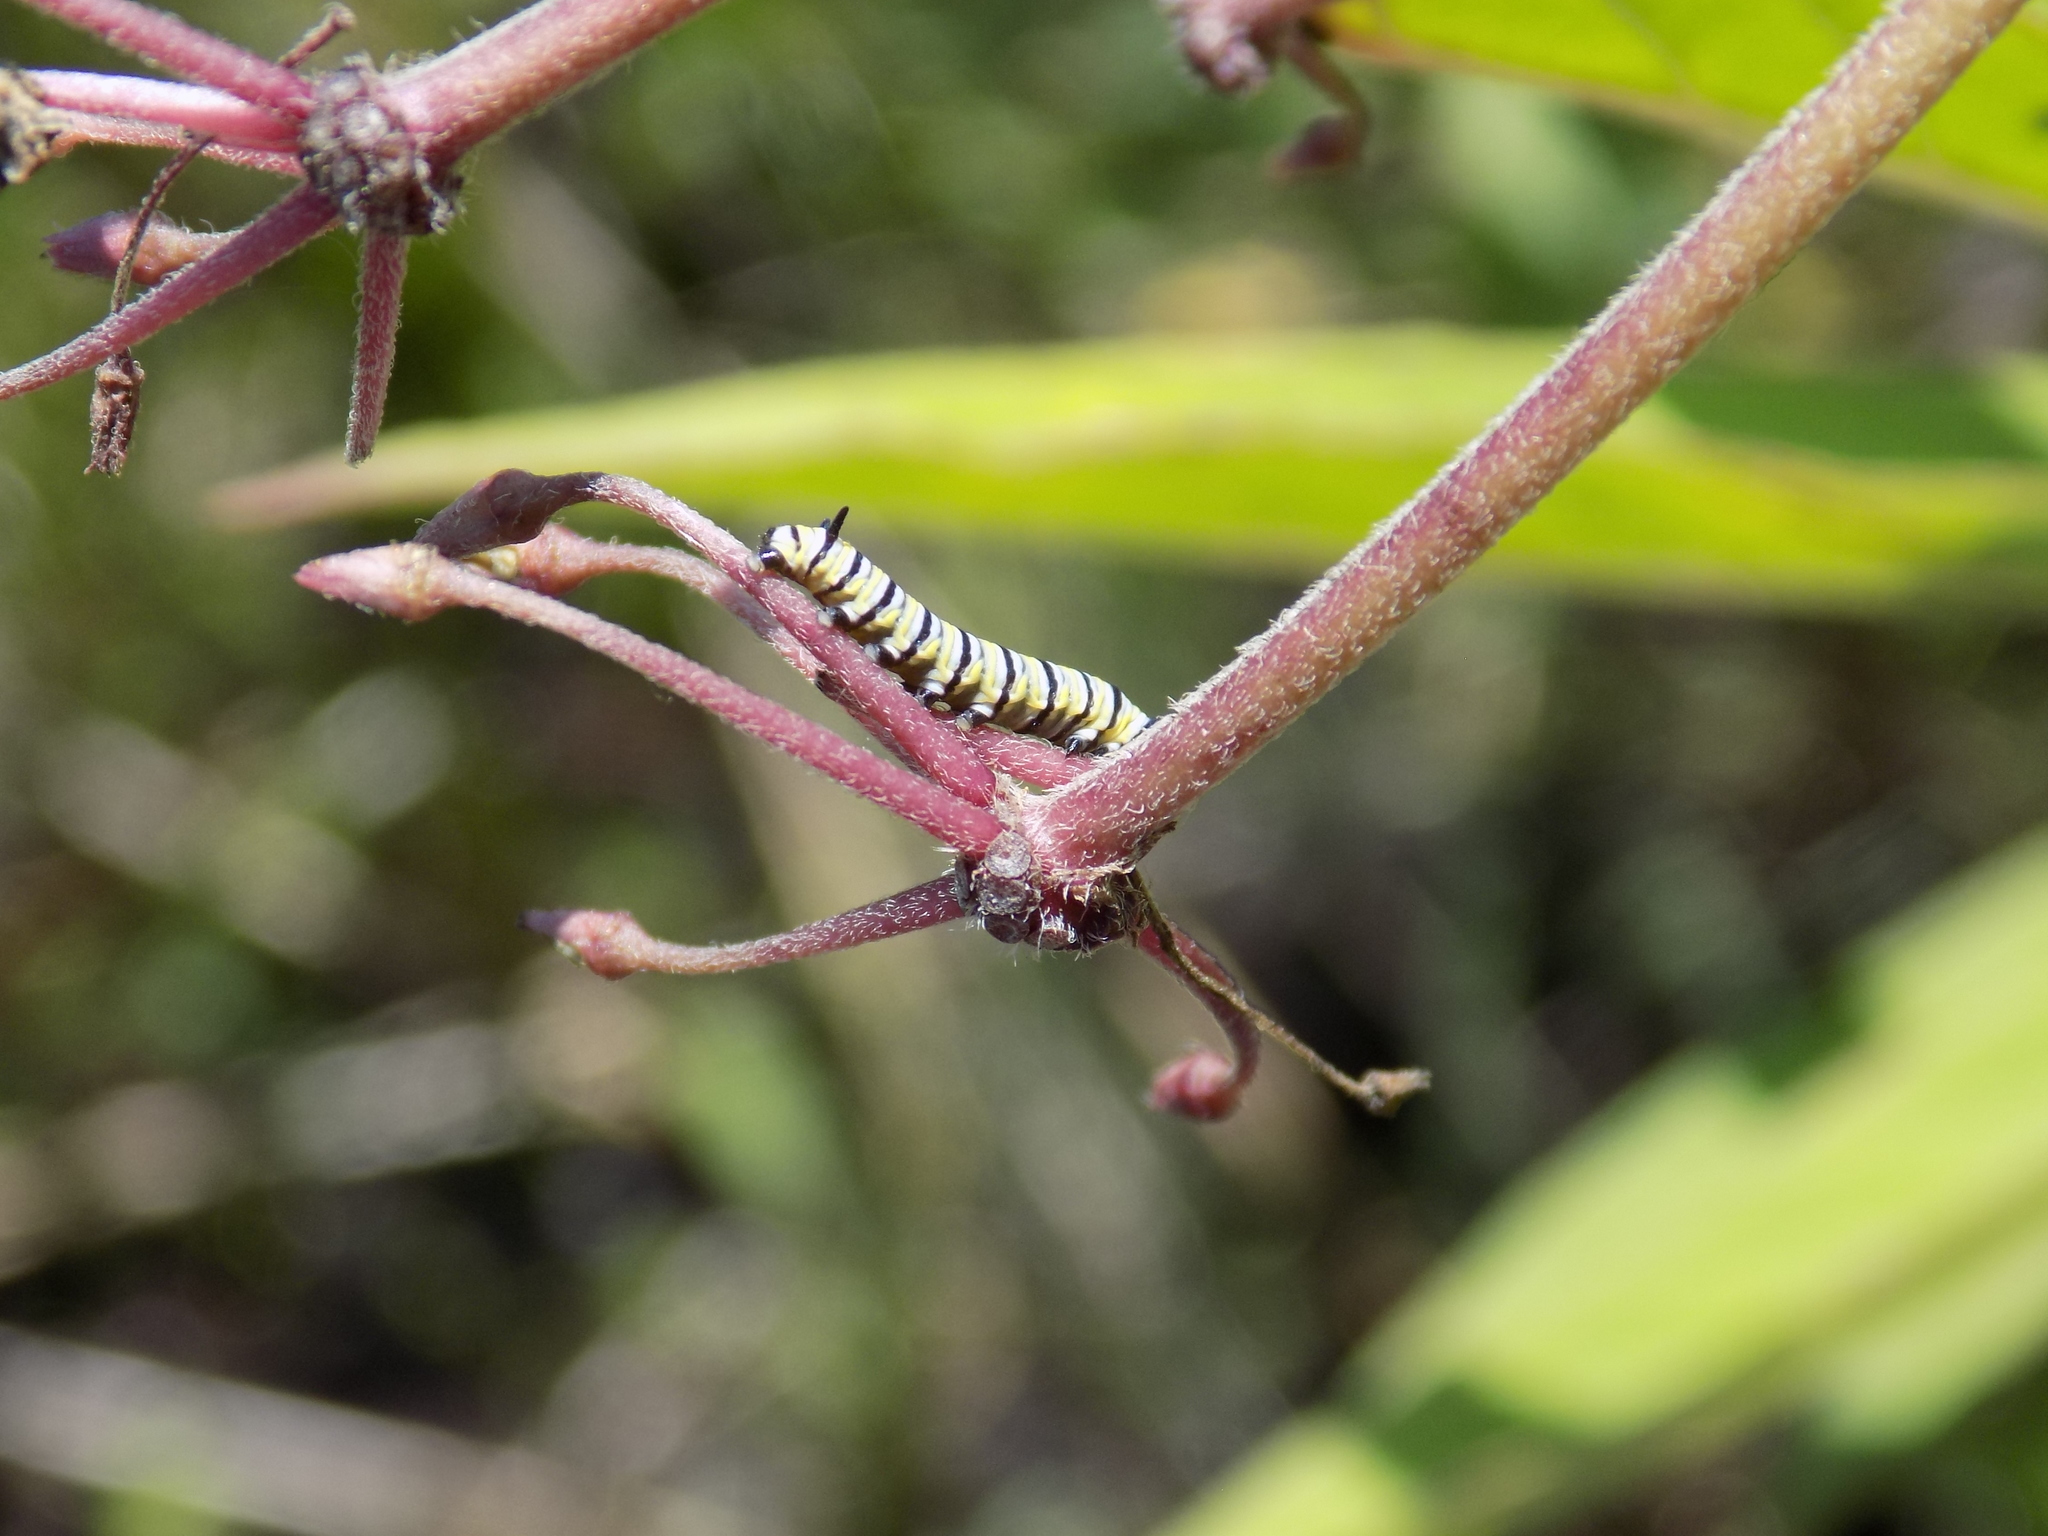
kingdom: Animalia
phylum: Arthropoda
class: Insecta
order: Lepidoptera
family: Nymphalidae
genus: Danaus
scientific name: Danaus plexippus
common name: Monarch
